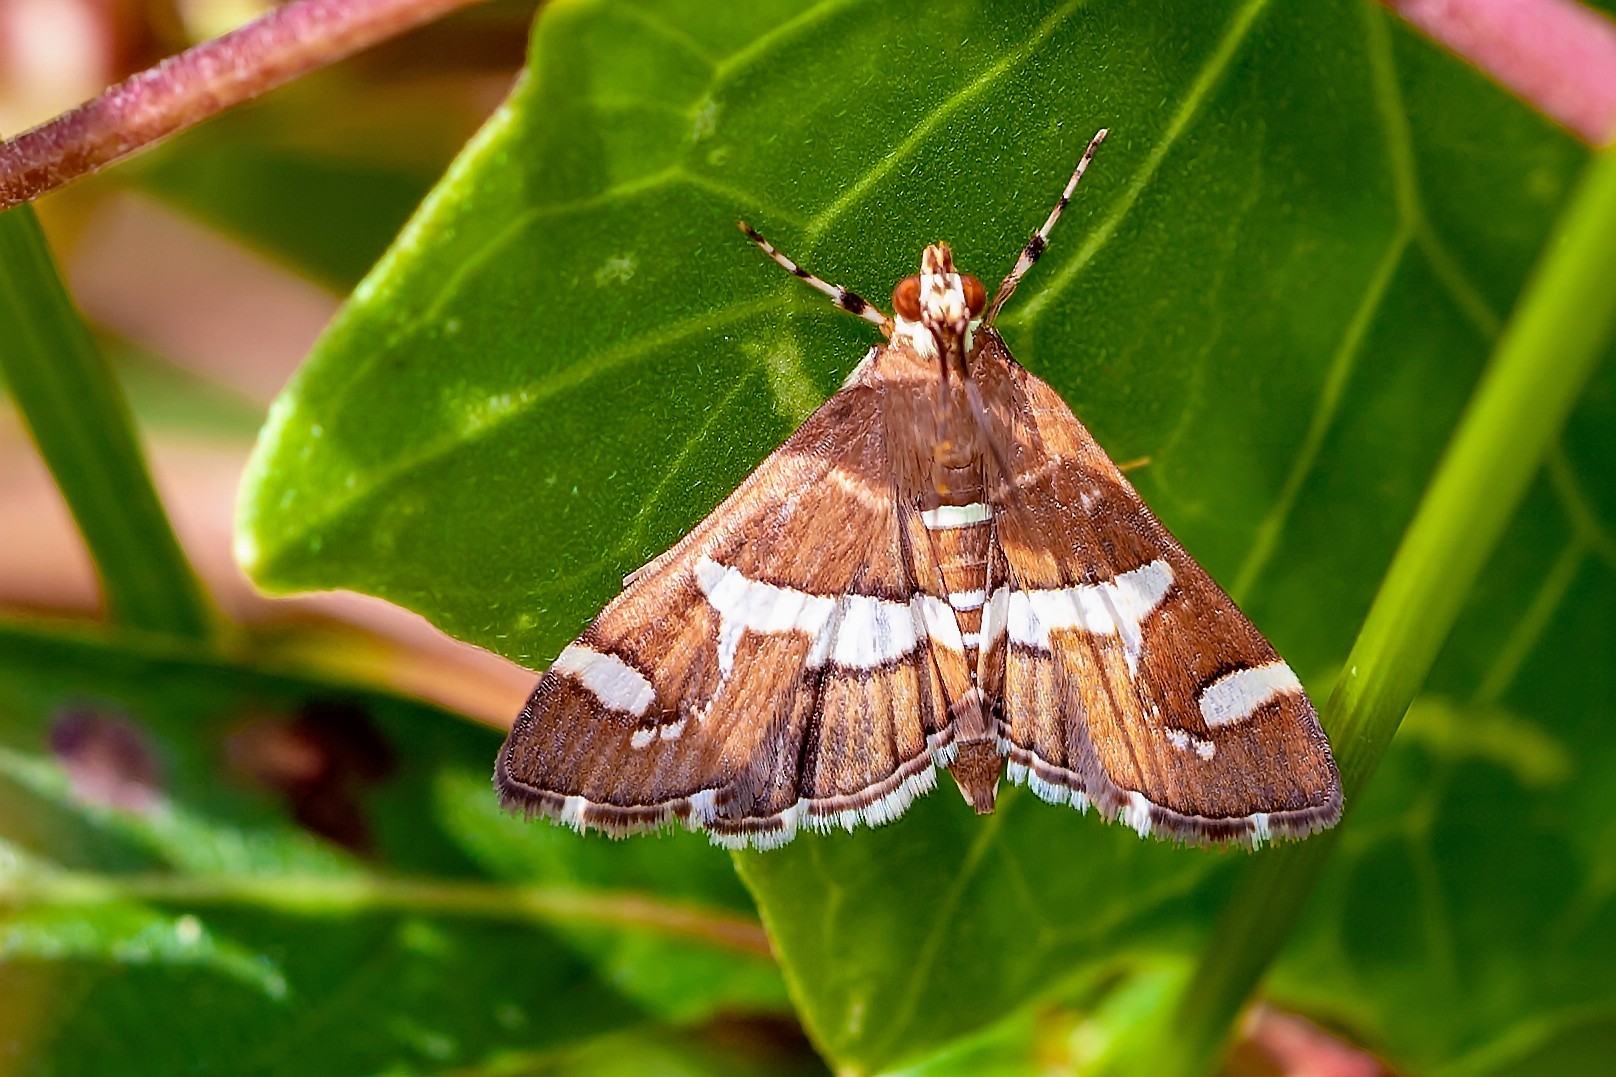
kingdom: Animalia
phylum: Arthropoda
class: Insecta
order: Lepidoptera
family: Crambidae
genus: Spoladea
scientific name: Spoladea recurvalis
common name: Beet webworm moth
